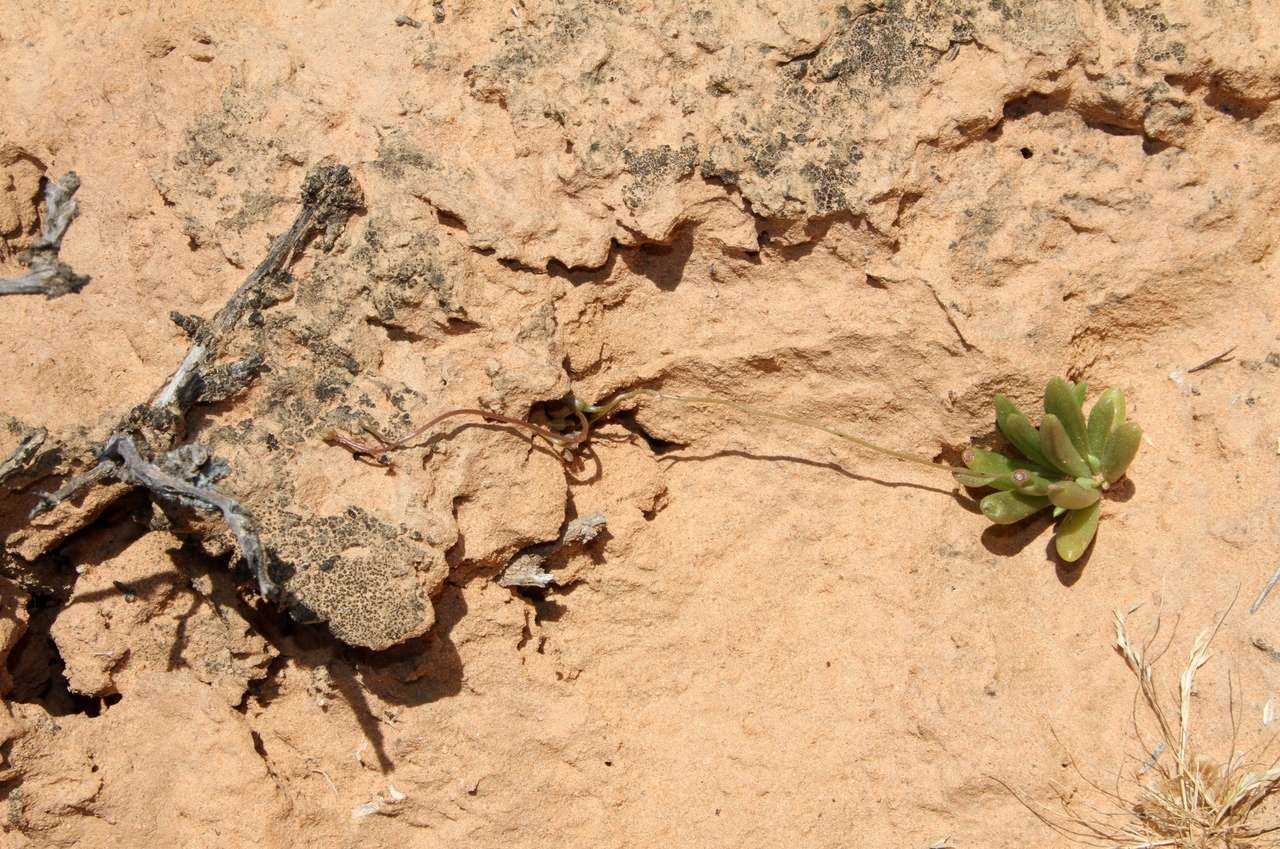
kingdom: Plantae
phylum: Tracheophyta
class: Magnoliopsida
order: Caryophyllales
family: Montiaceae
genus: Rumicastrum
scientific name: Rumicastrum volubile
